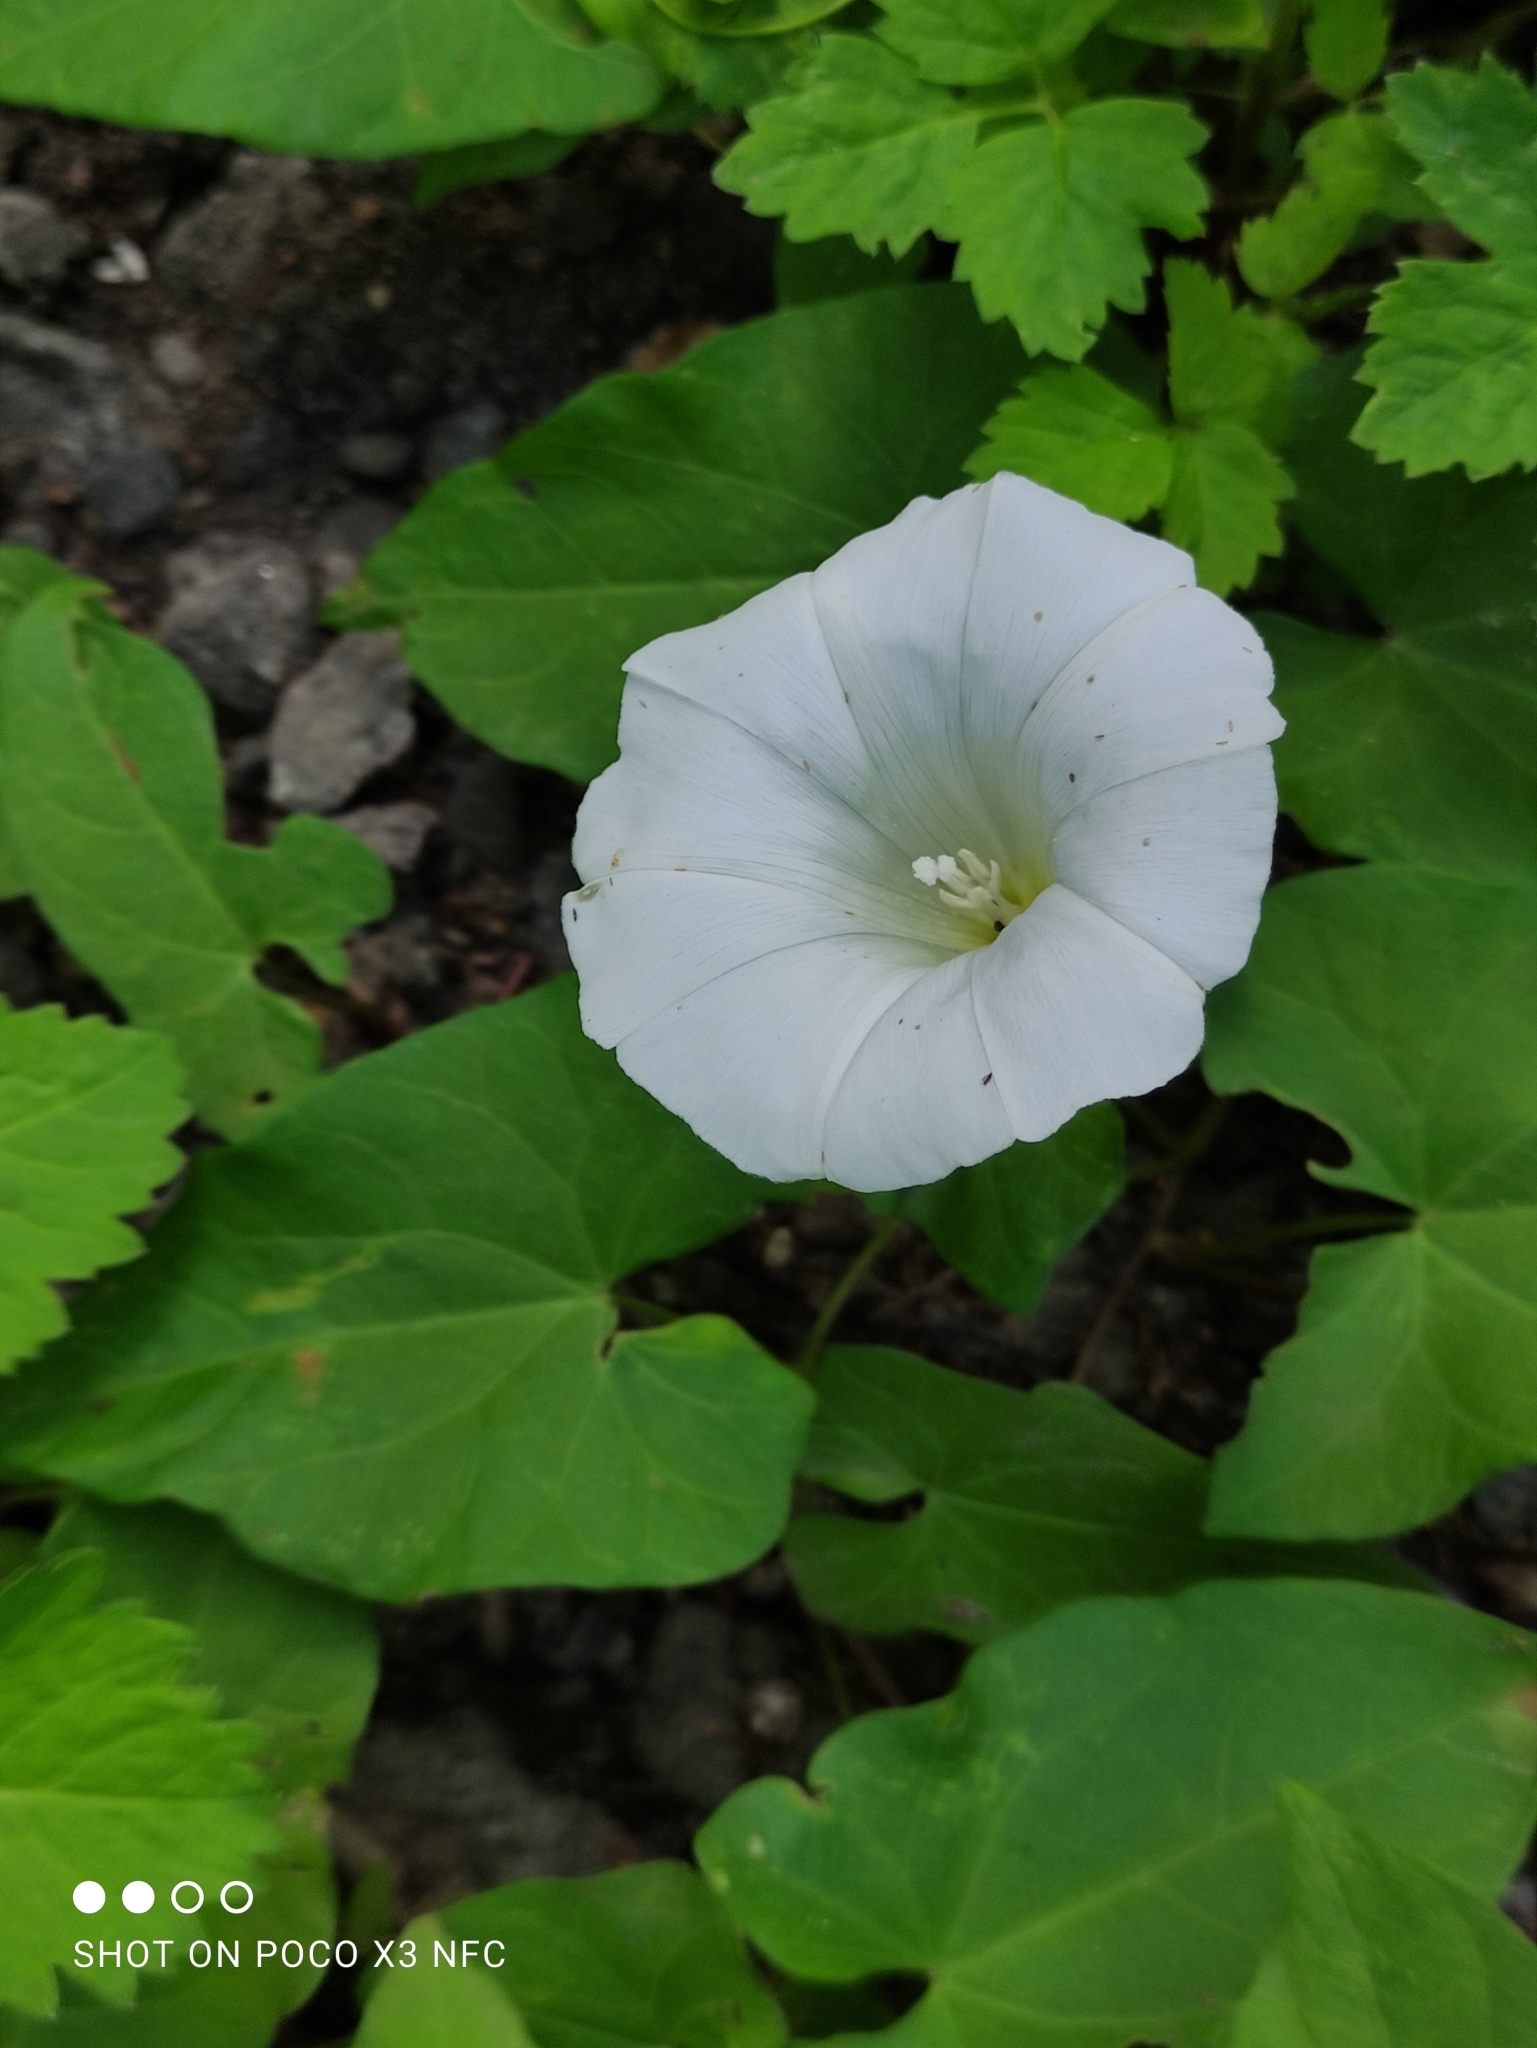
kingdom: Plantae
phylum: Tracheophyta
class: Magnoliopsida
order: Solanales
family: Convolvulaceae
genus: Calystegia
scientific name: Calystegia sepium
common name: Hedge bindweed
